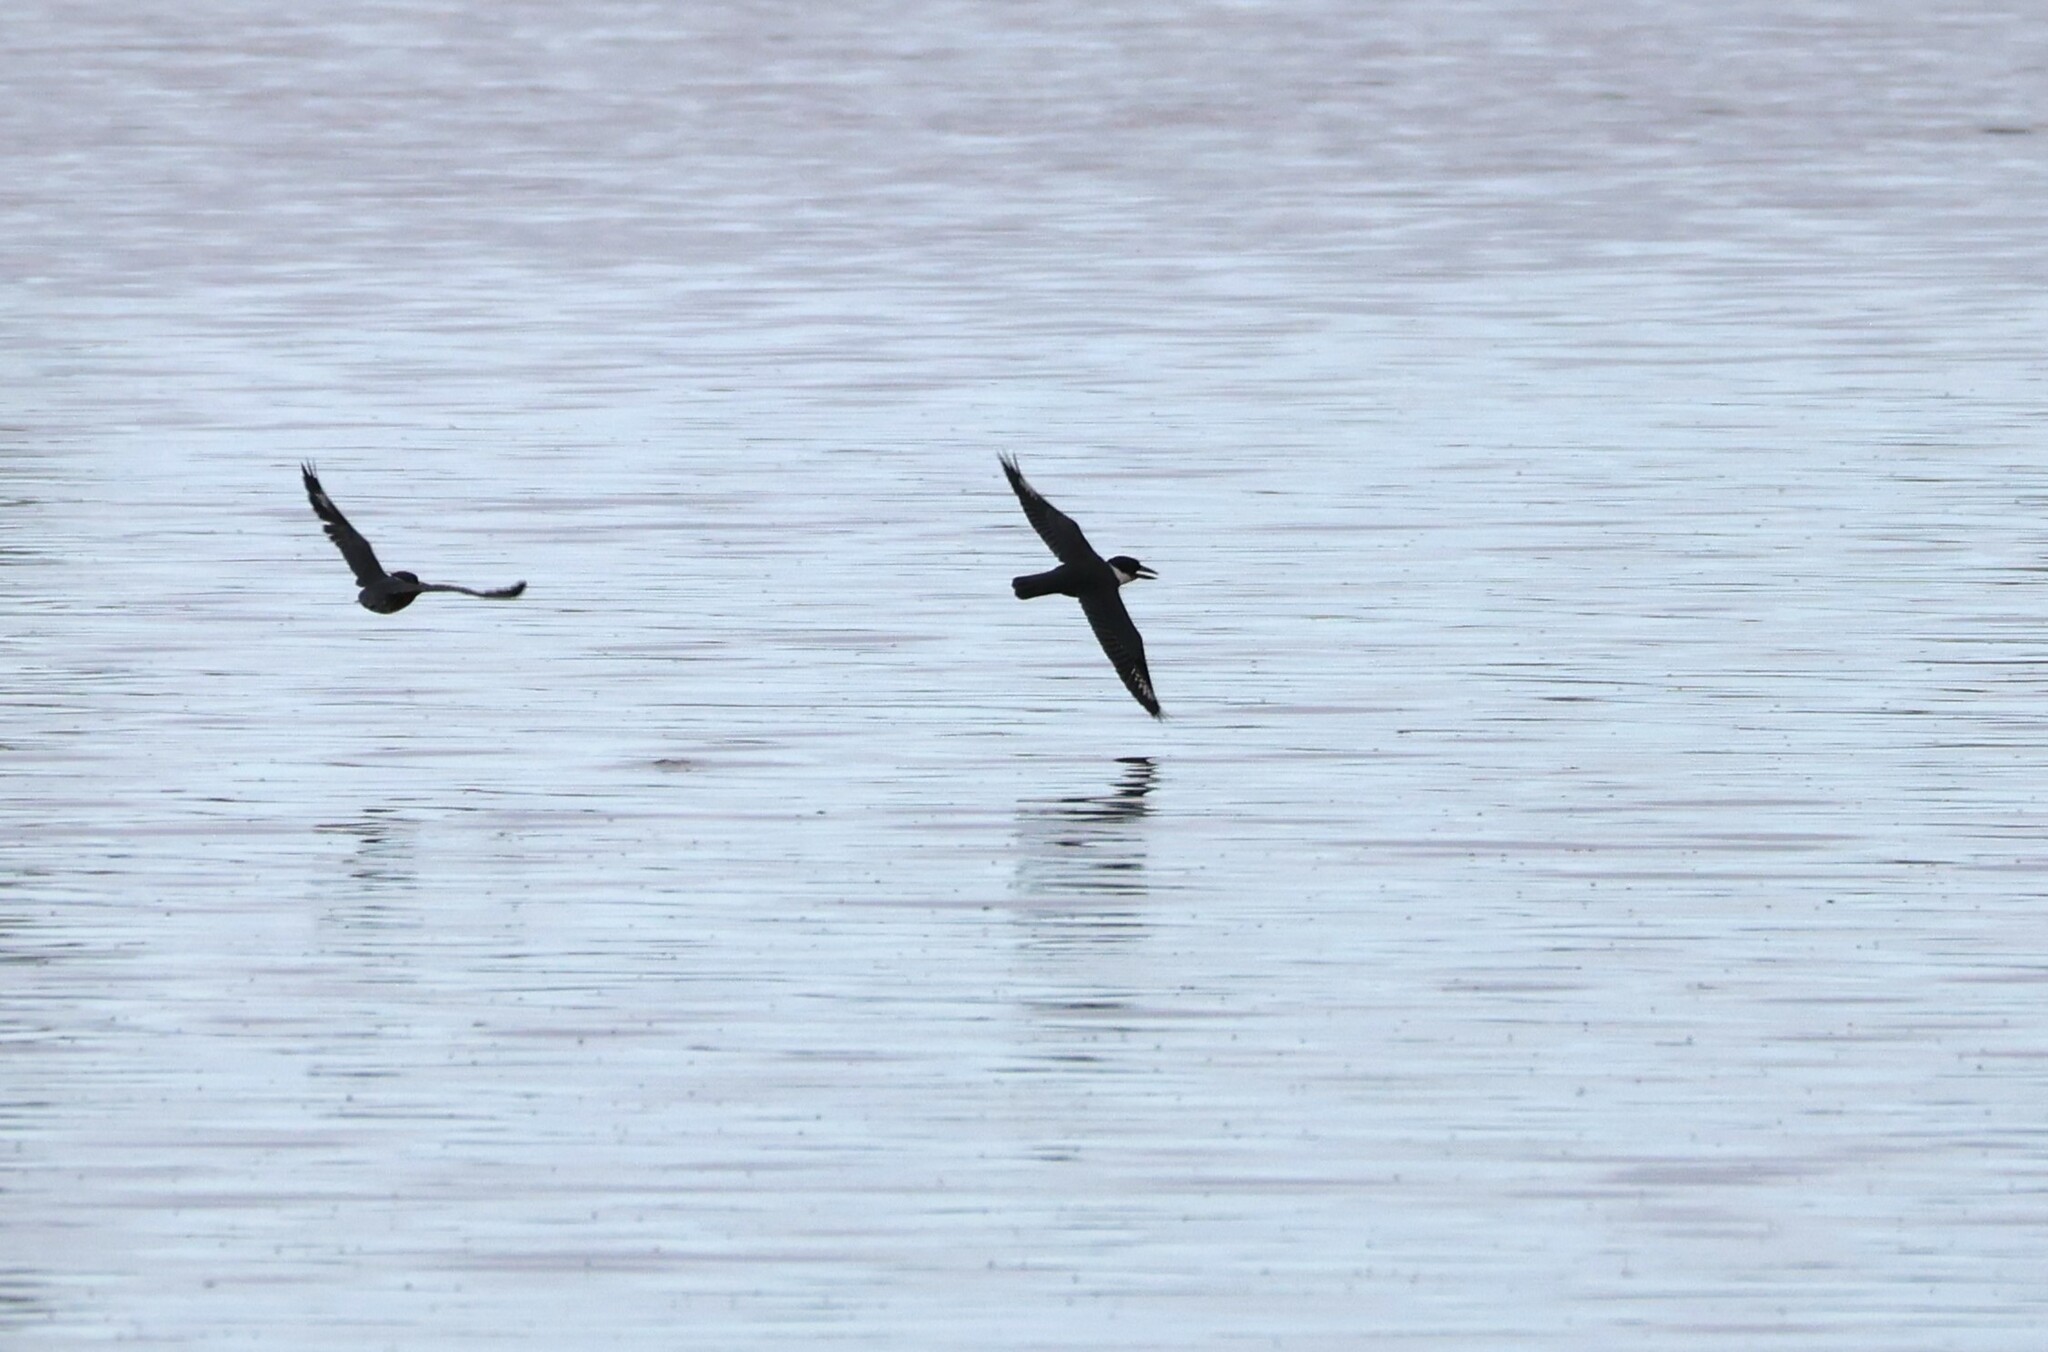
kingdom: Animalia
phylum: Chordata
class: Aves
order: Coraciiformes
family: Alcedinidae
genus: Megaceryle
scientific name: Megaceryle alcyon
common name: Belted kingfisher
